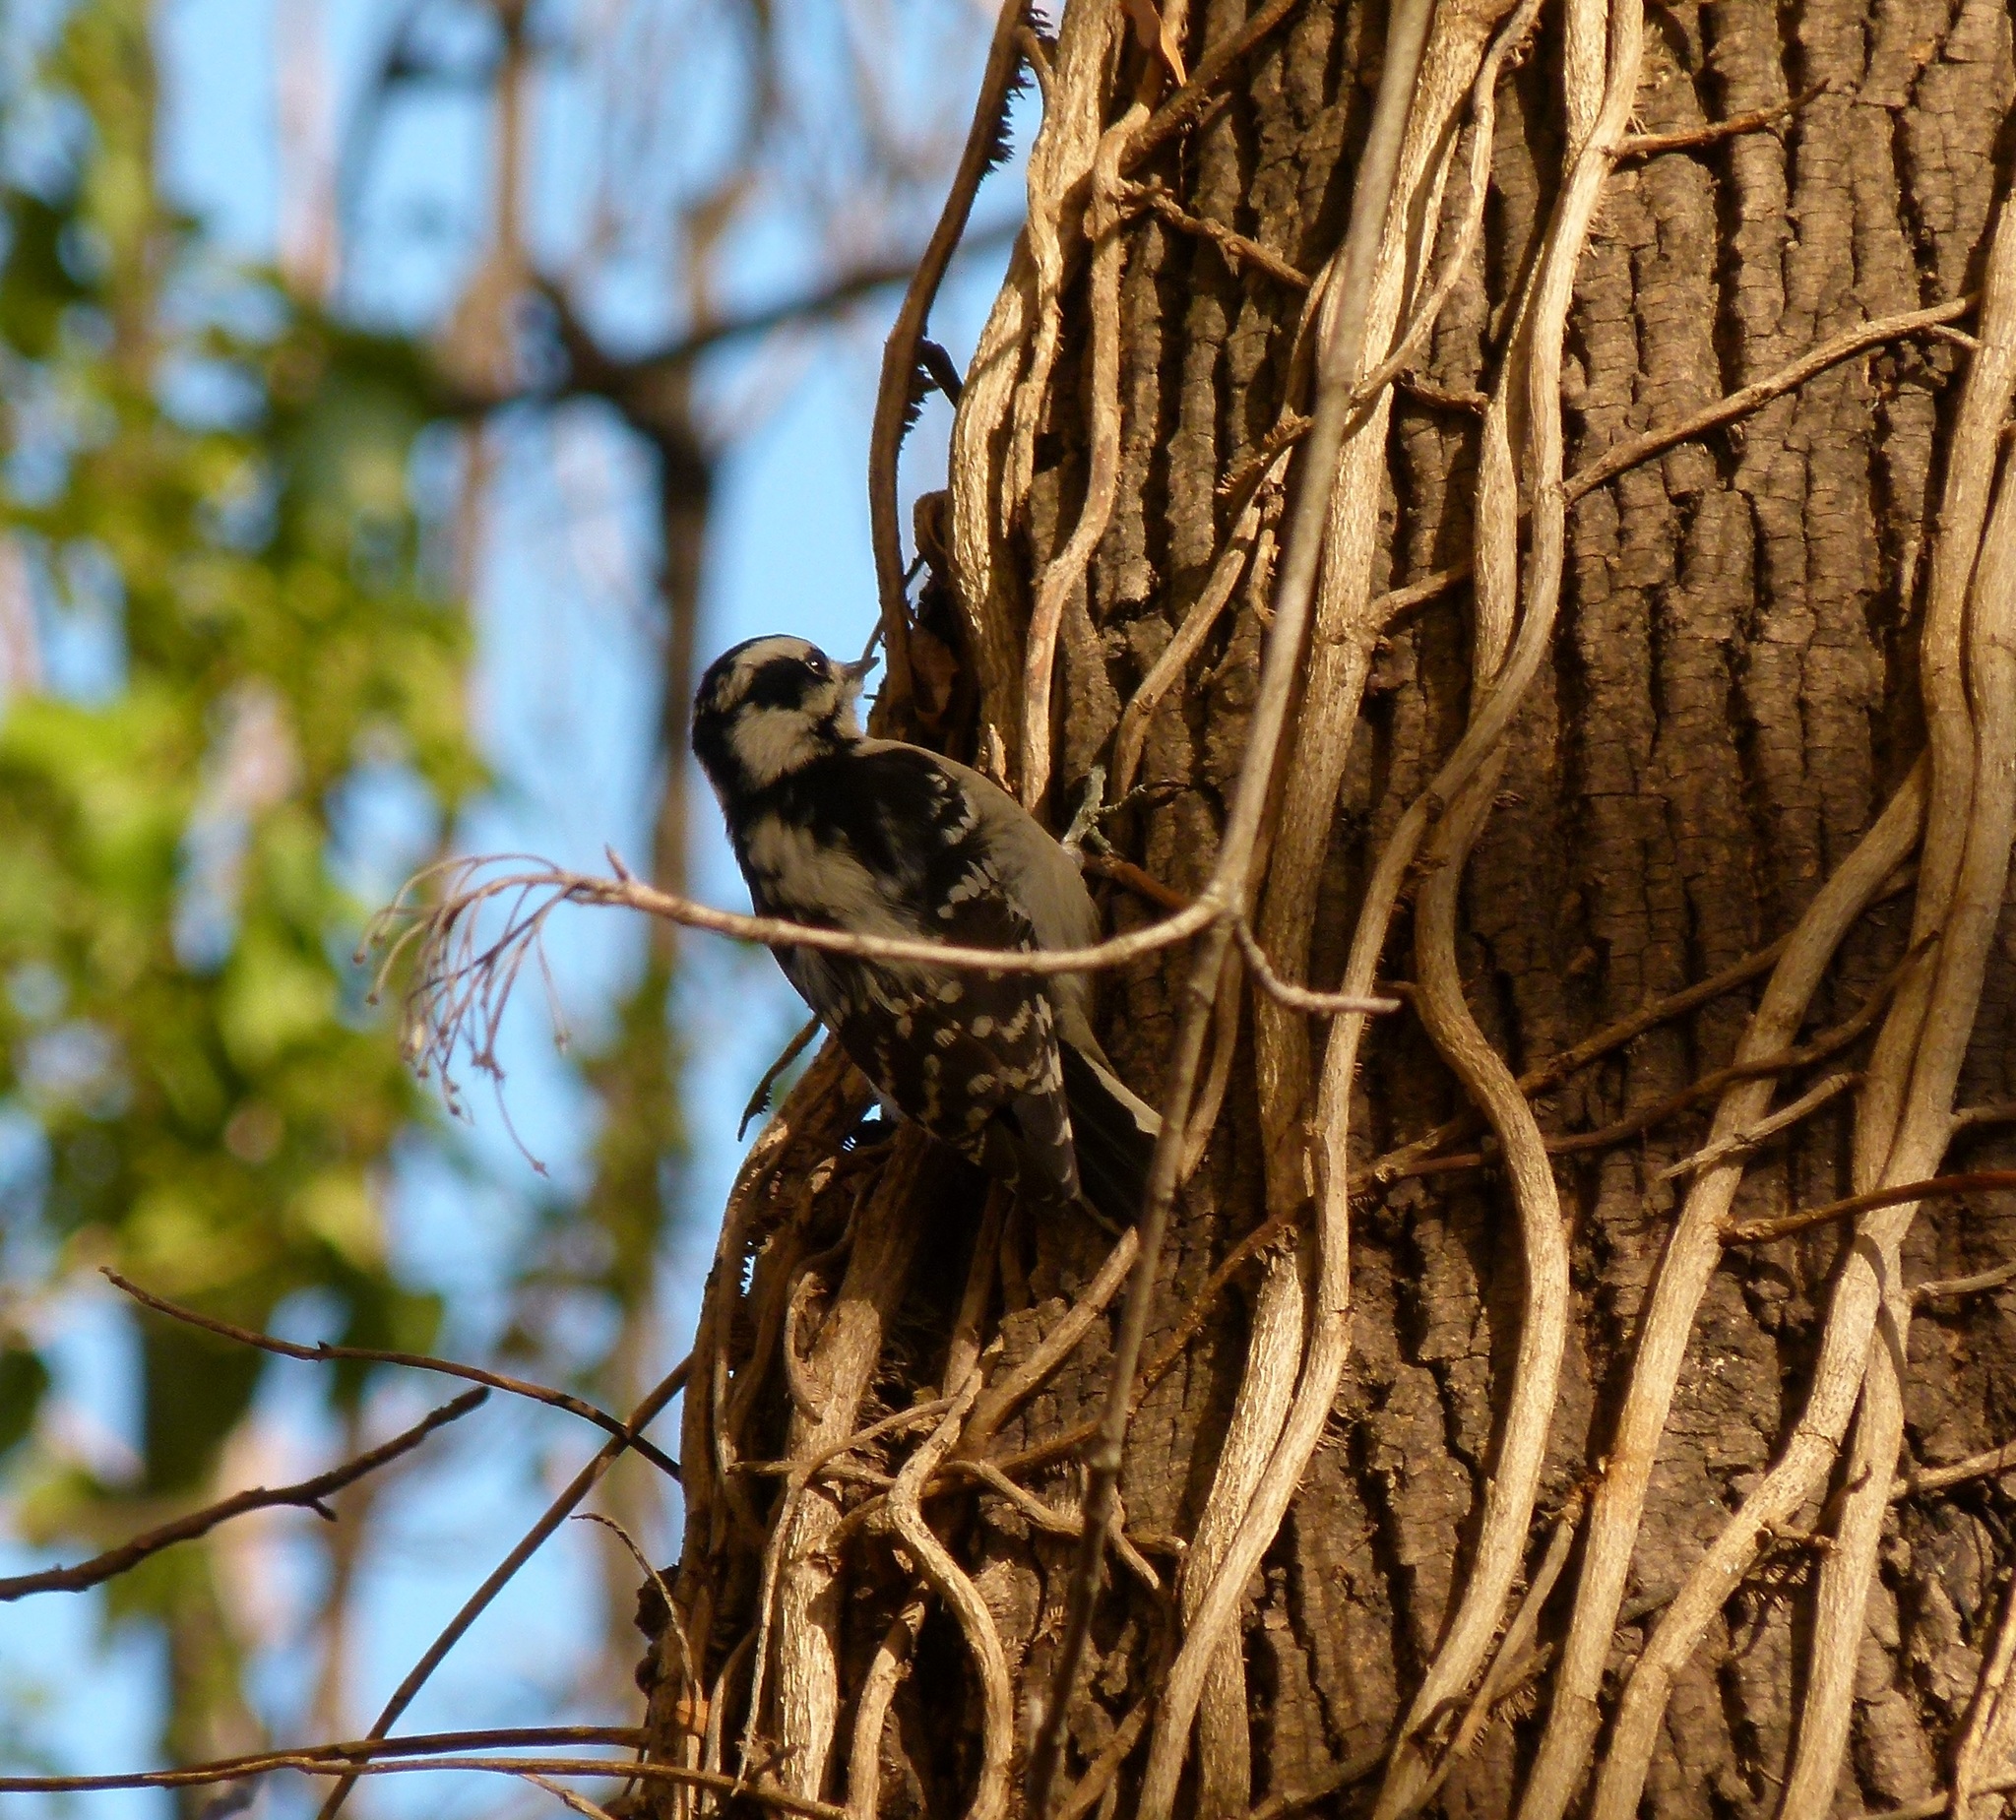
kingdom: Animalia
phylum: Chordata
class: Aves
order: Piciformes
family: Picidae
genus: Dryobates
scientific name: Dryobates pubescens
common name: Downy woodpecker
